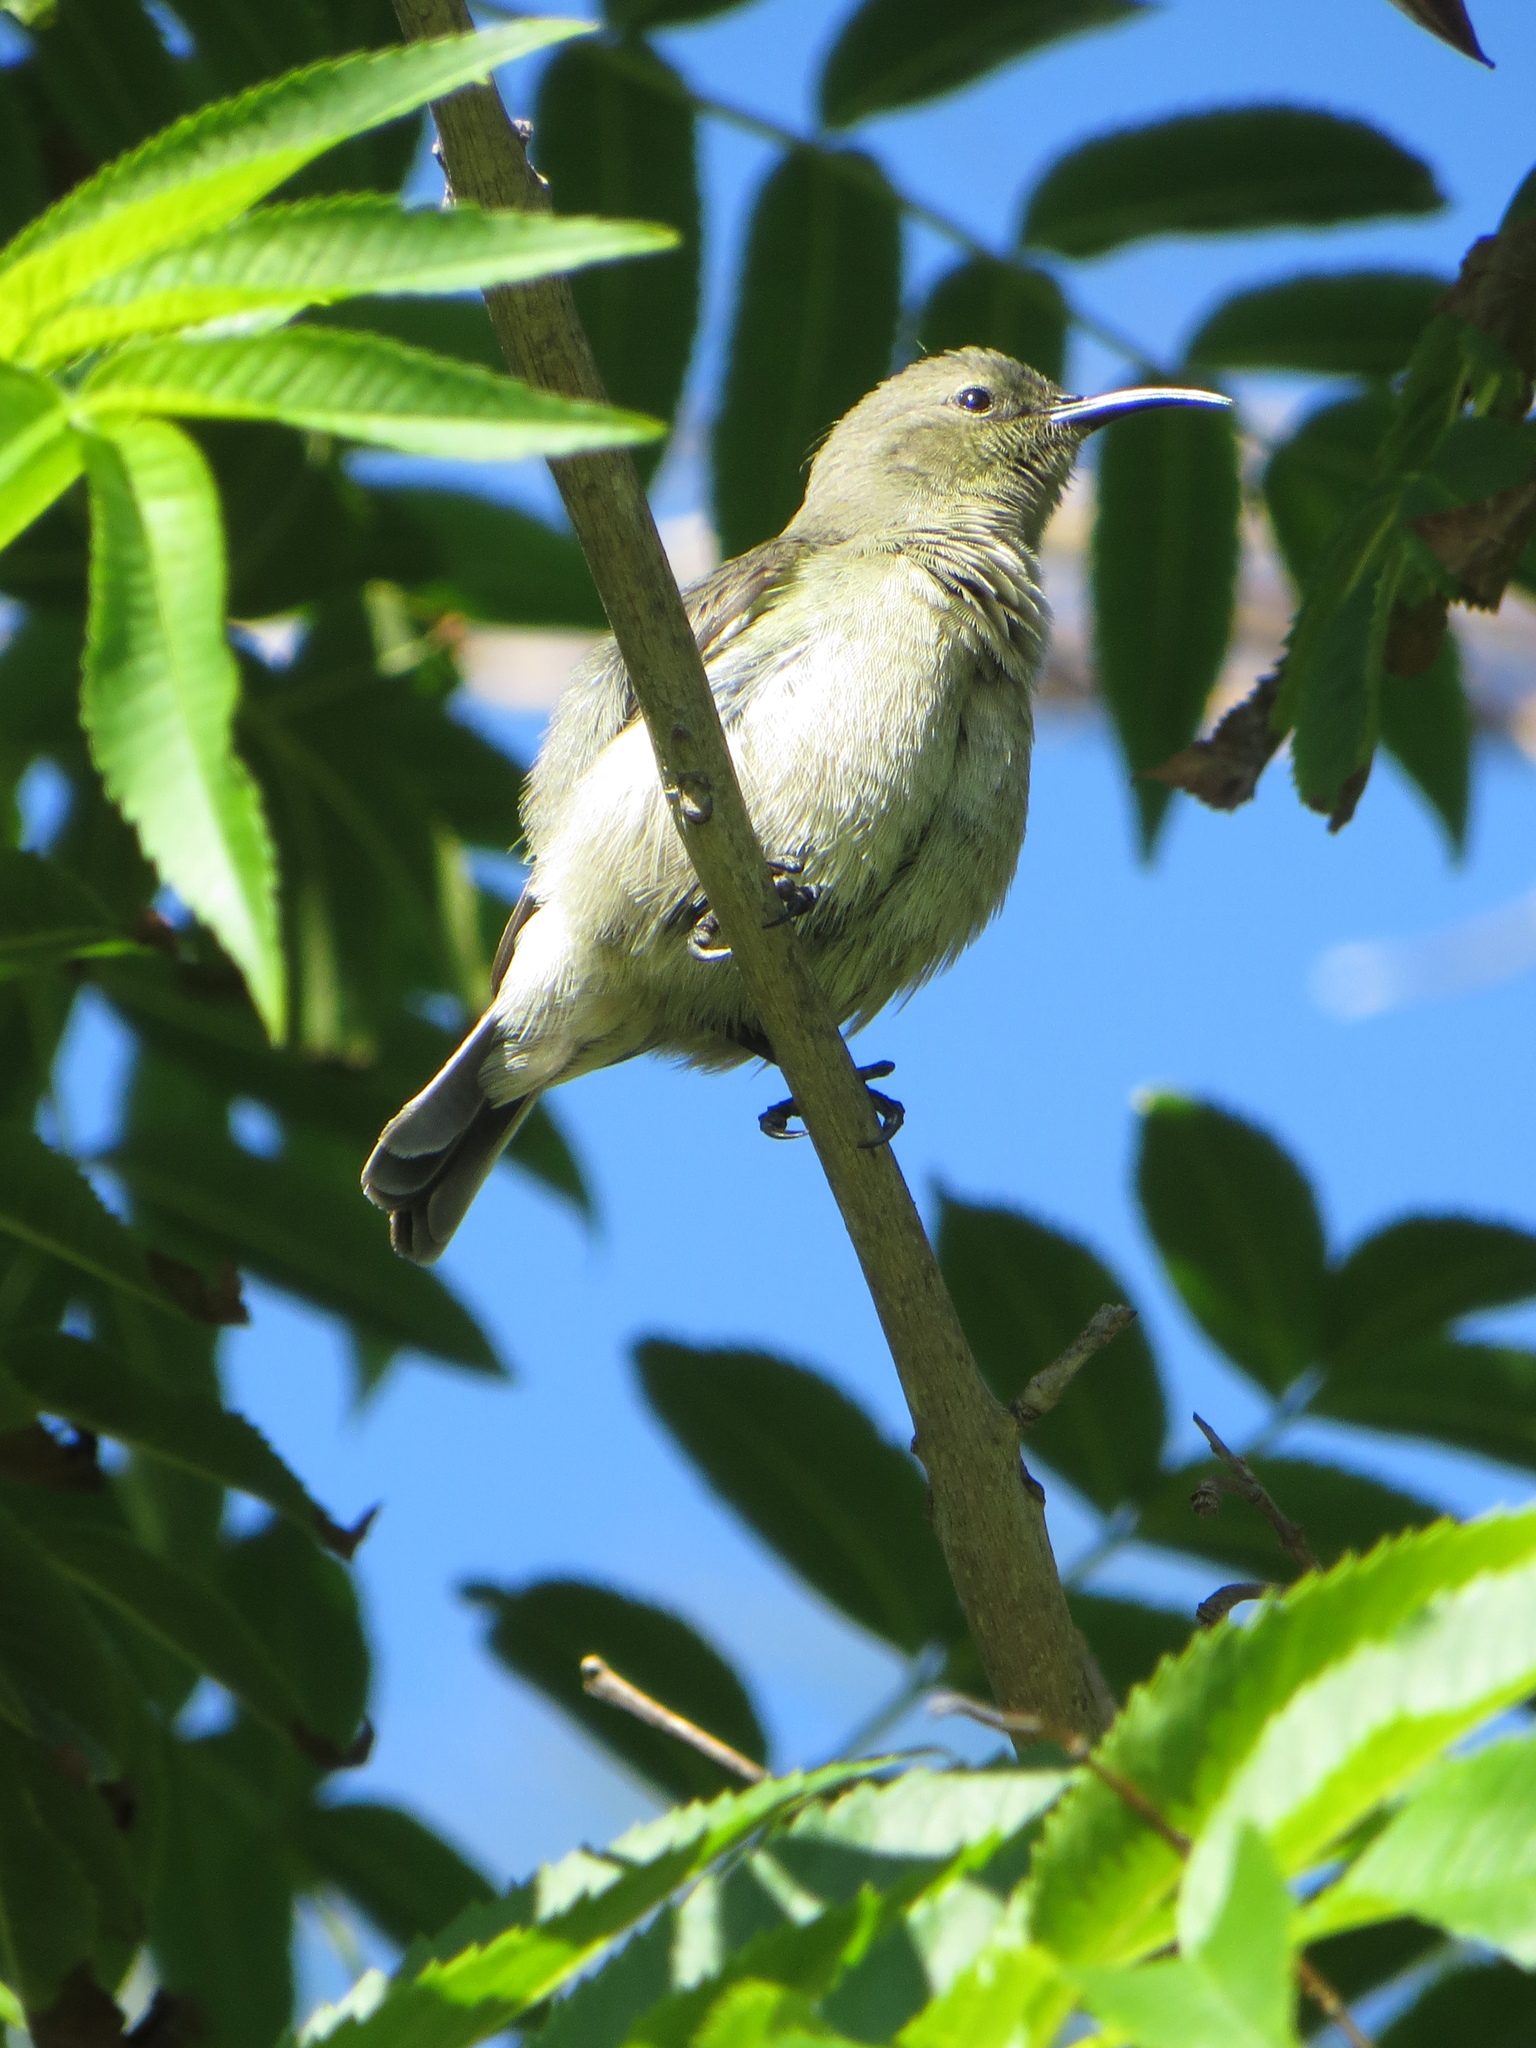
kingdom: Animalia
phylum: Chordata
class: Aves
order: Passeriformes
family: Nectariniidae
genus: Cinnyris
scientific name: Cinnyris chalybeus
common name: Southern double-collared sunbird
